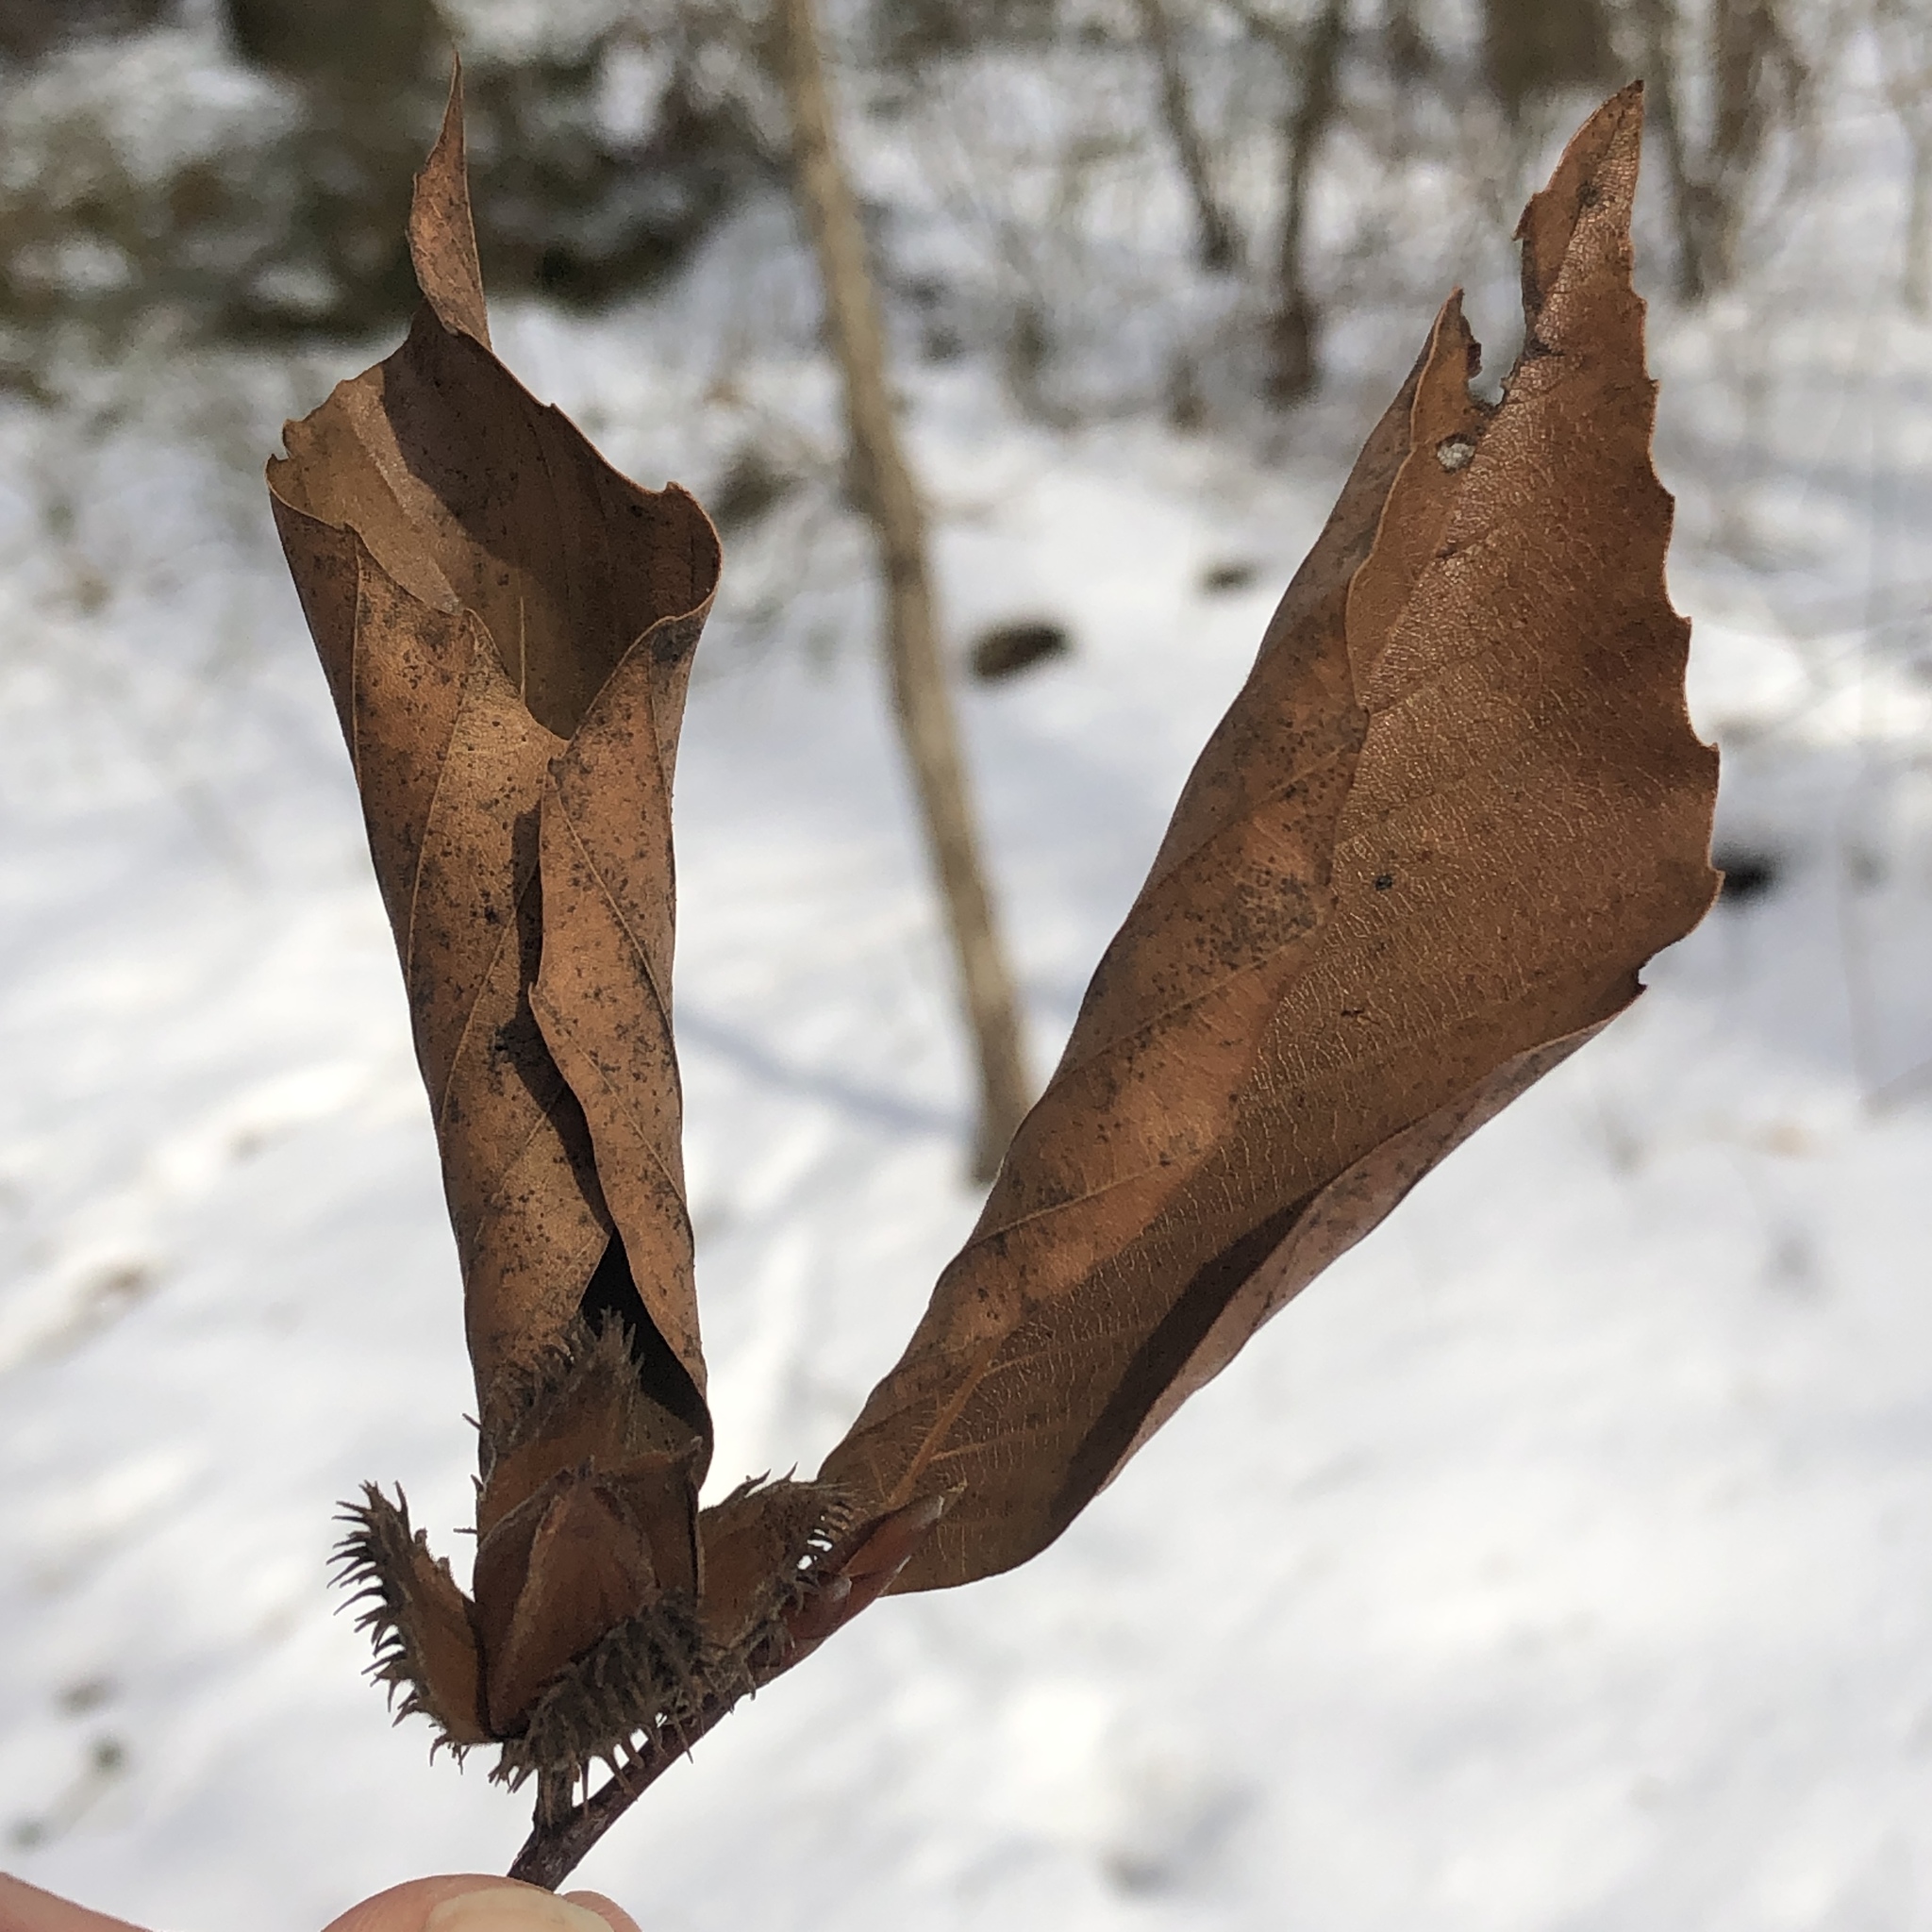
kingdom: Plantae
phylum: Tracheophyta
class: Magnoliopsida
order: Fagales
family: Fagaceae
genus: Fagus
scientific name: Fagus grandifolia
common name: American beech
